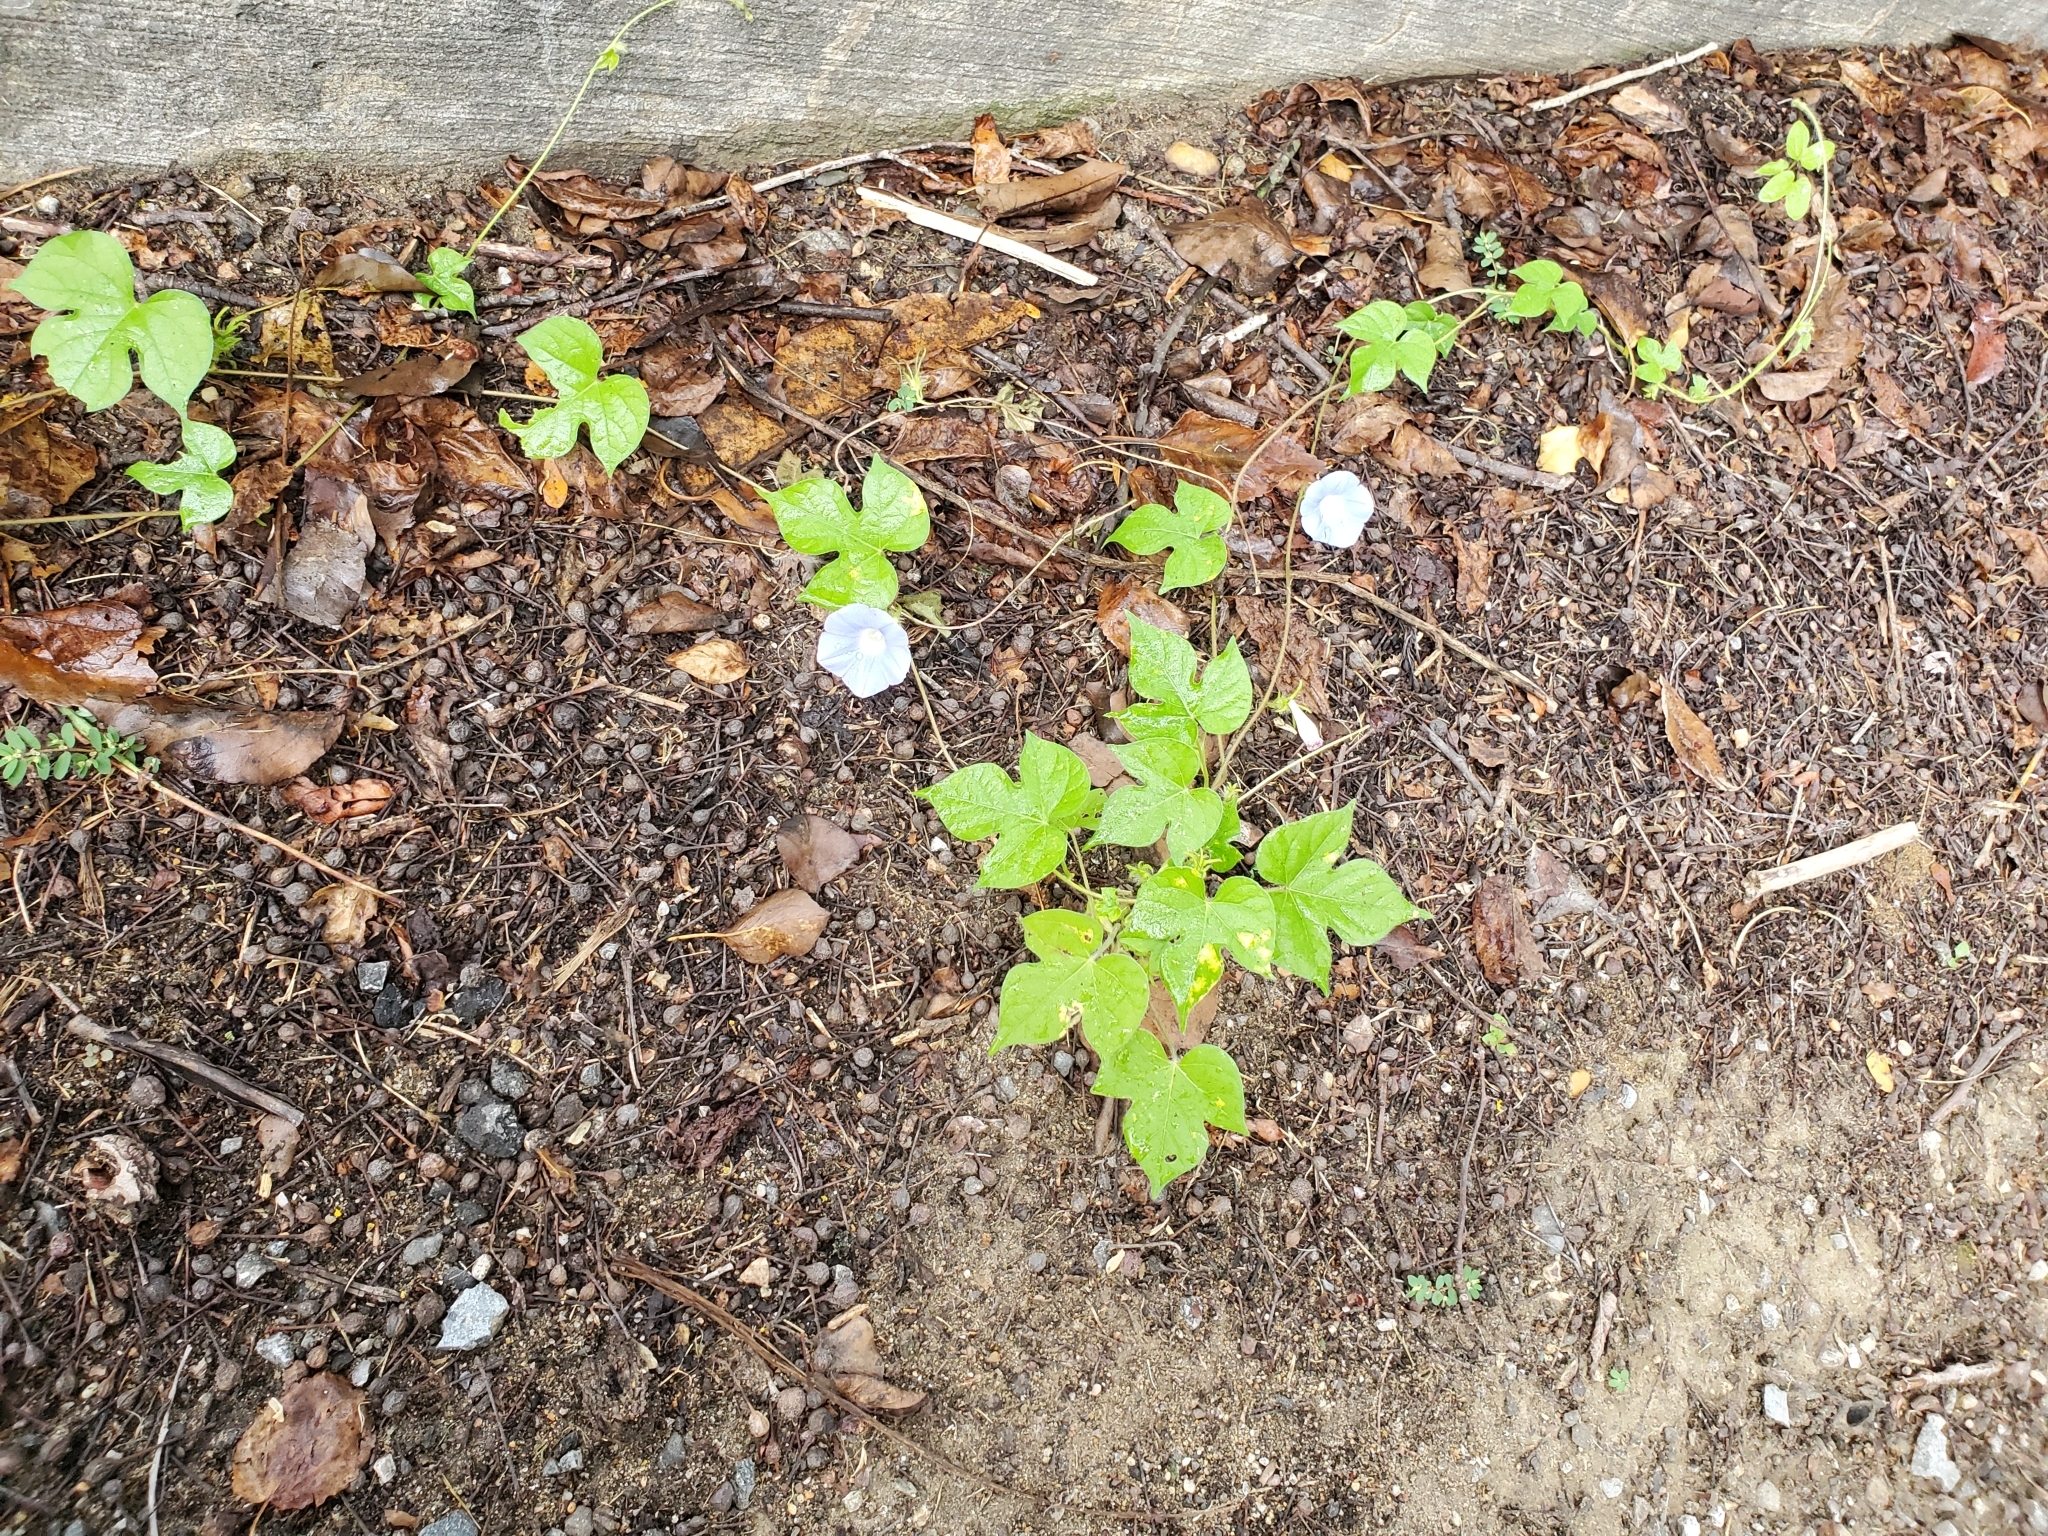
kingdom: Plantae
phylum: Tracheophyta
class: Magnoliopsida
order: Solanales
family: Convolvulaceae
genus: Ipomoea
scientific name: Ipomoea hederacea
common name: Ivy-leaved morning-glory
